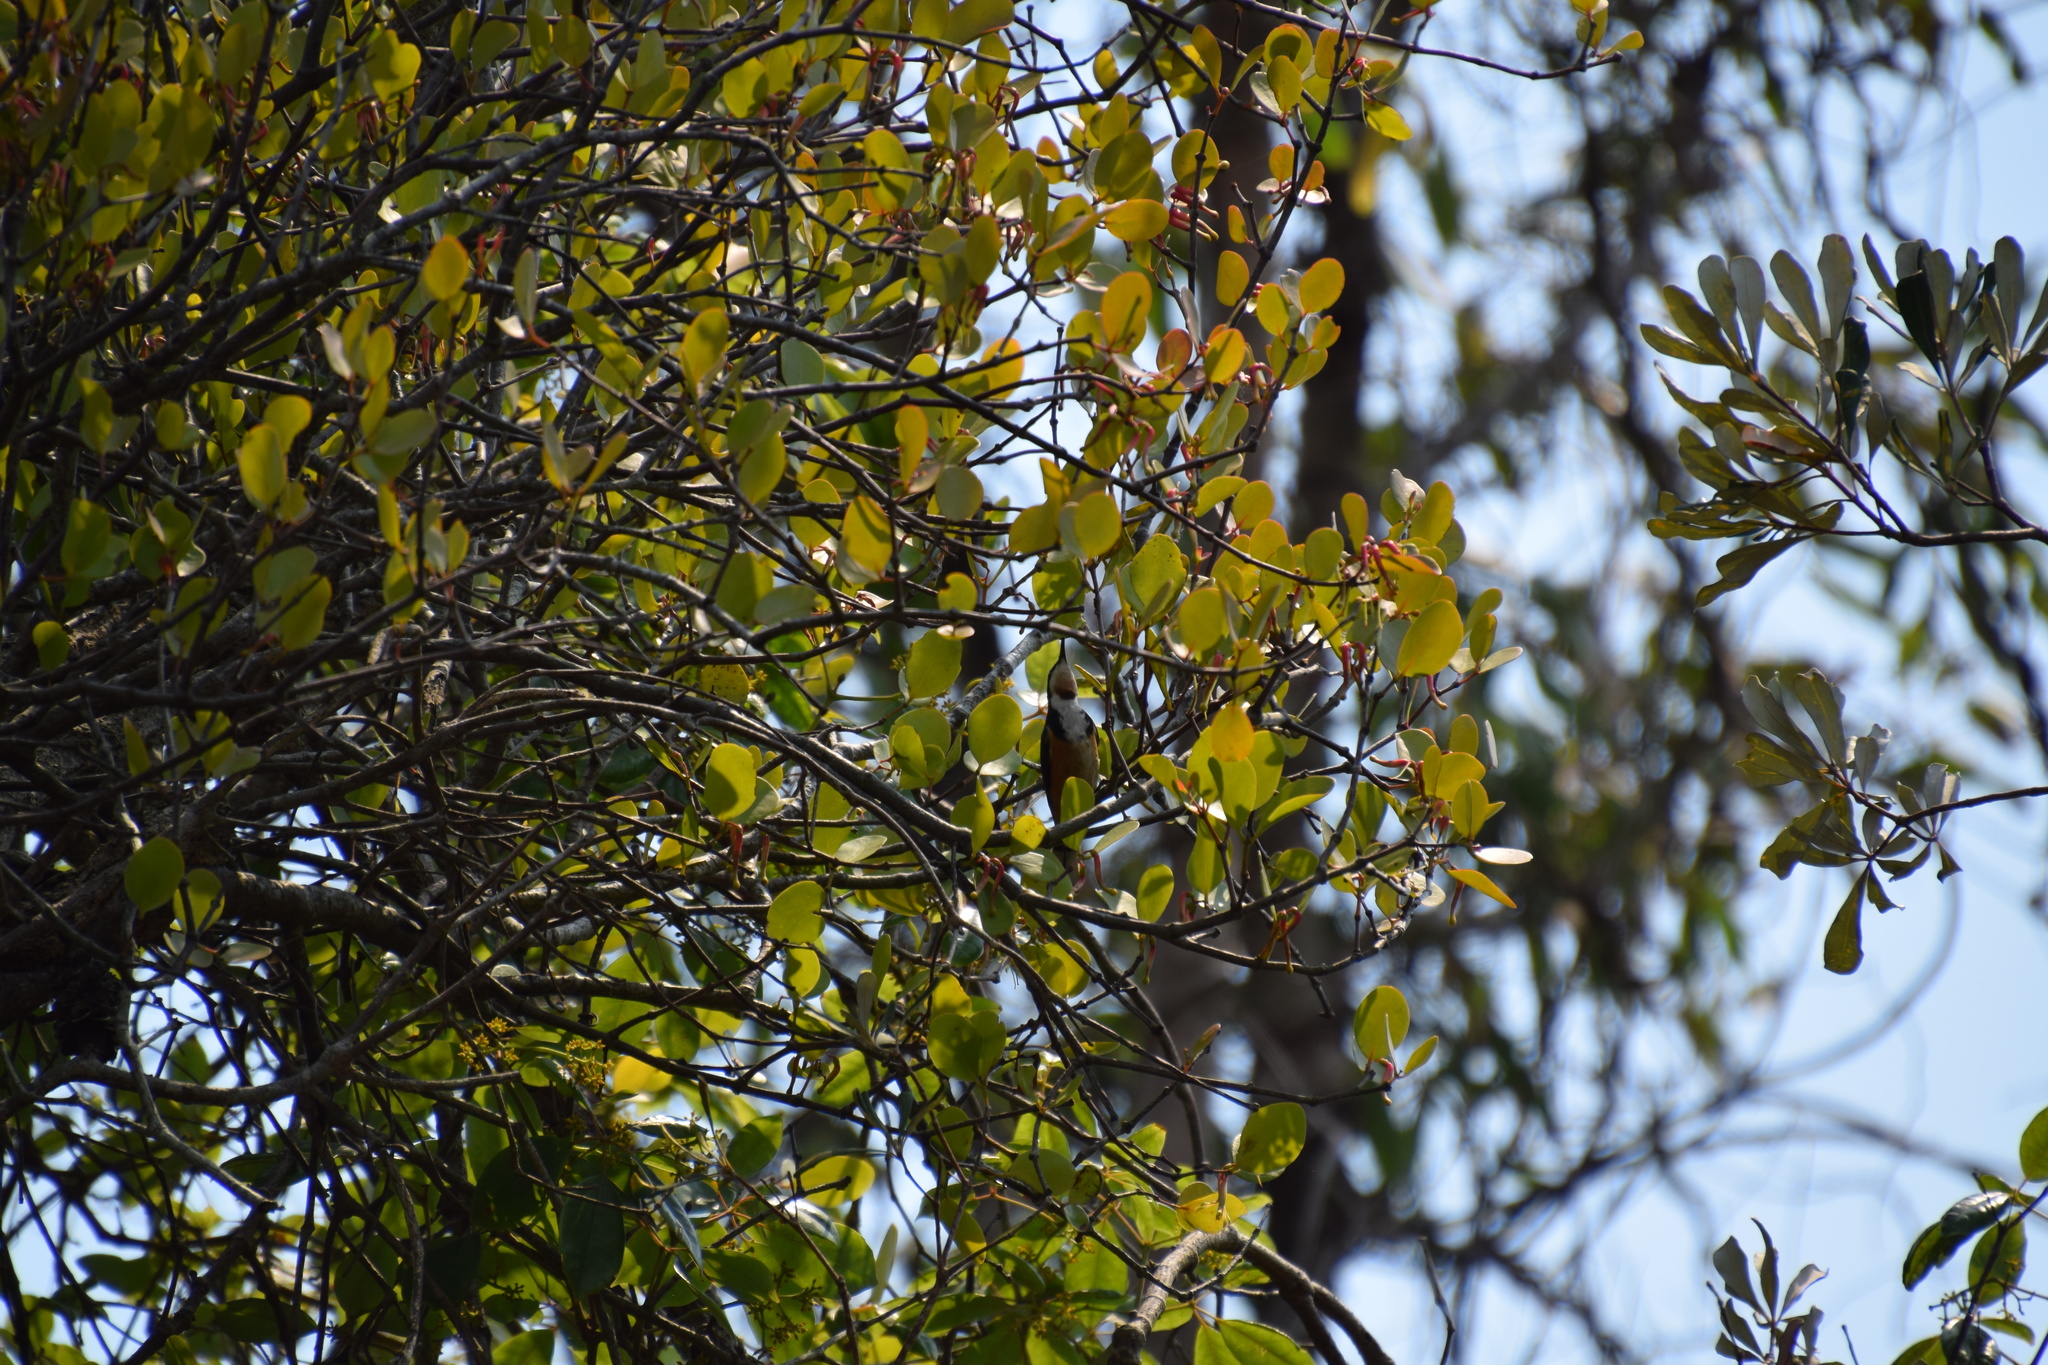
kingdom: Animalia
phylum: Chordata
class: Aves
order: Passeriformes
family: Meliphagidae
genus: Acanthorhynchus
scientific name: Acanthorhynchus tenuirostris
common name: Eastern spinebill
